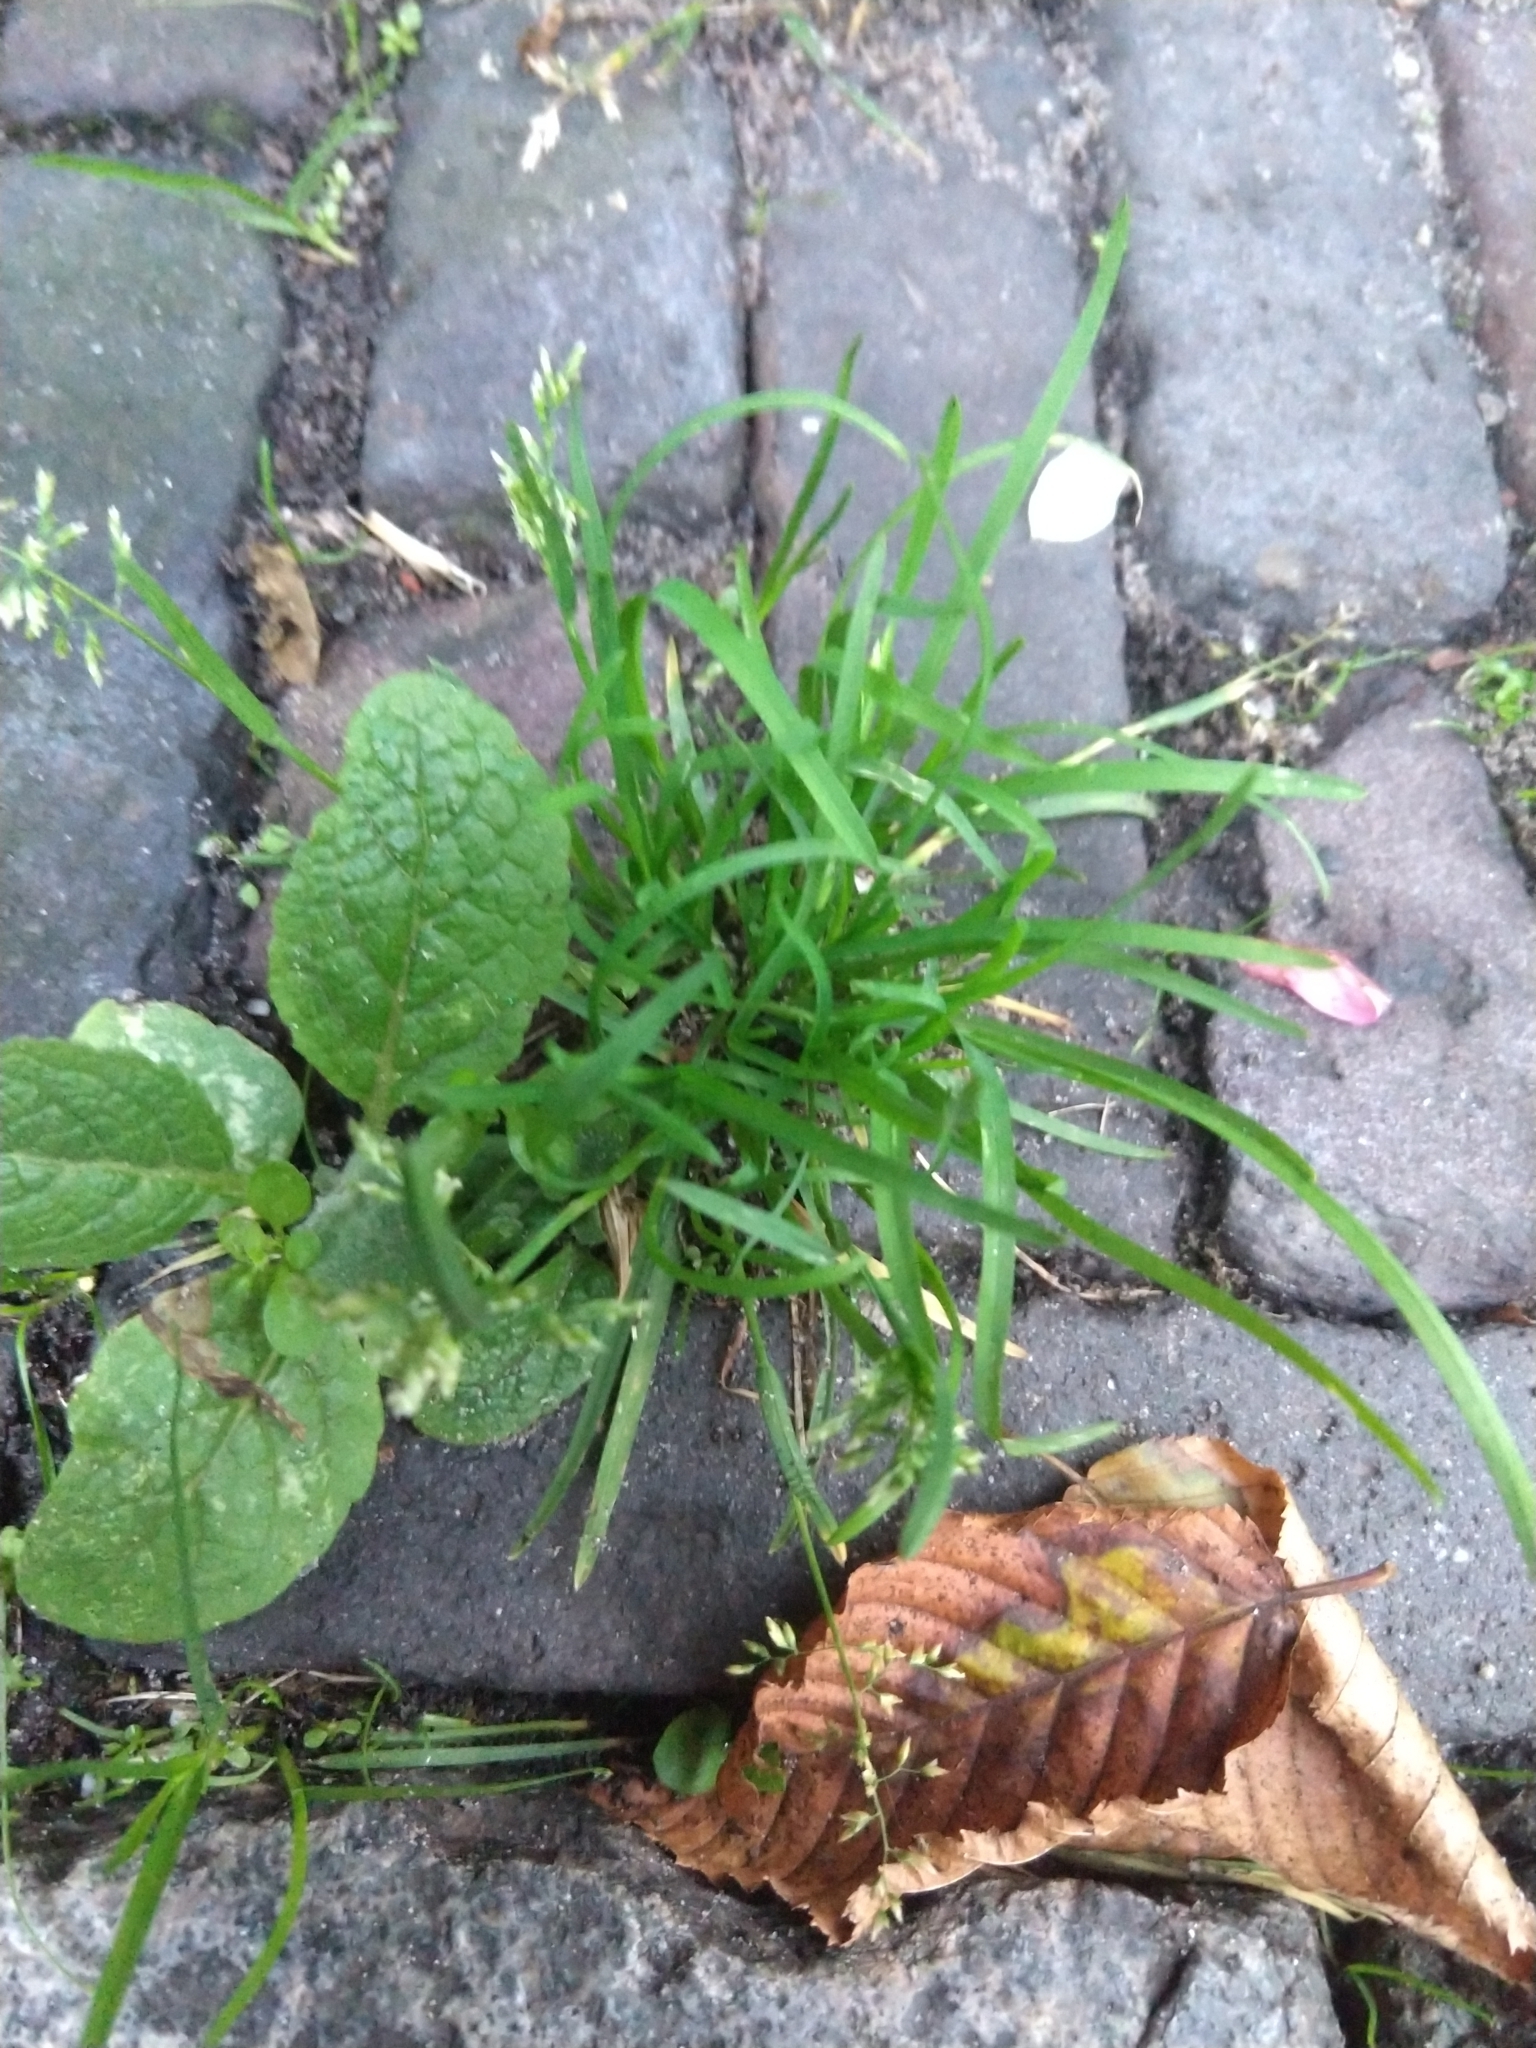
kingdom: Plantae
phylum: Tracheophyta
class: Liliopsida
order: Poales
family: Poaceae
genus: Poa
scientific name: Poa annua
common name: Annual bluegrass
